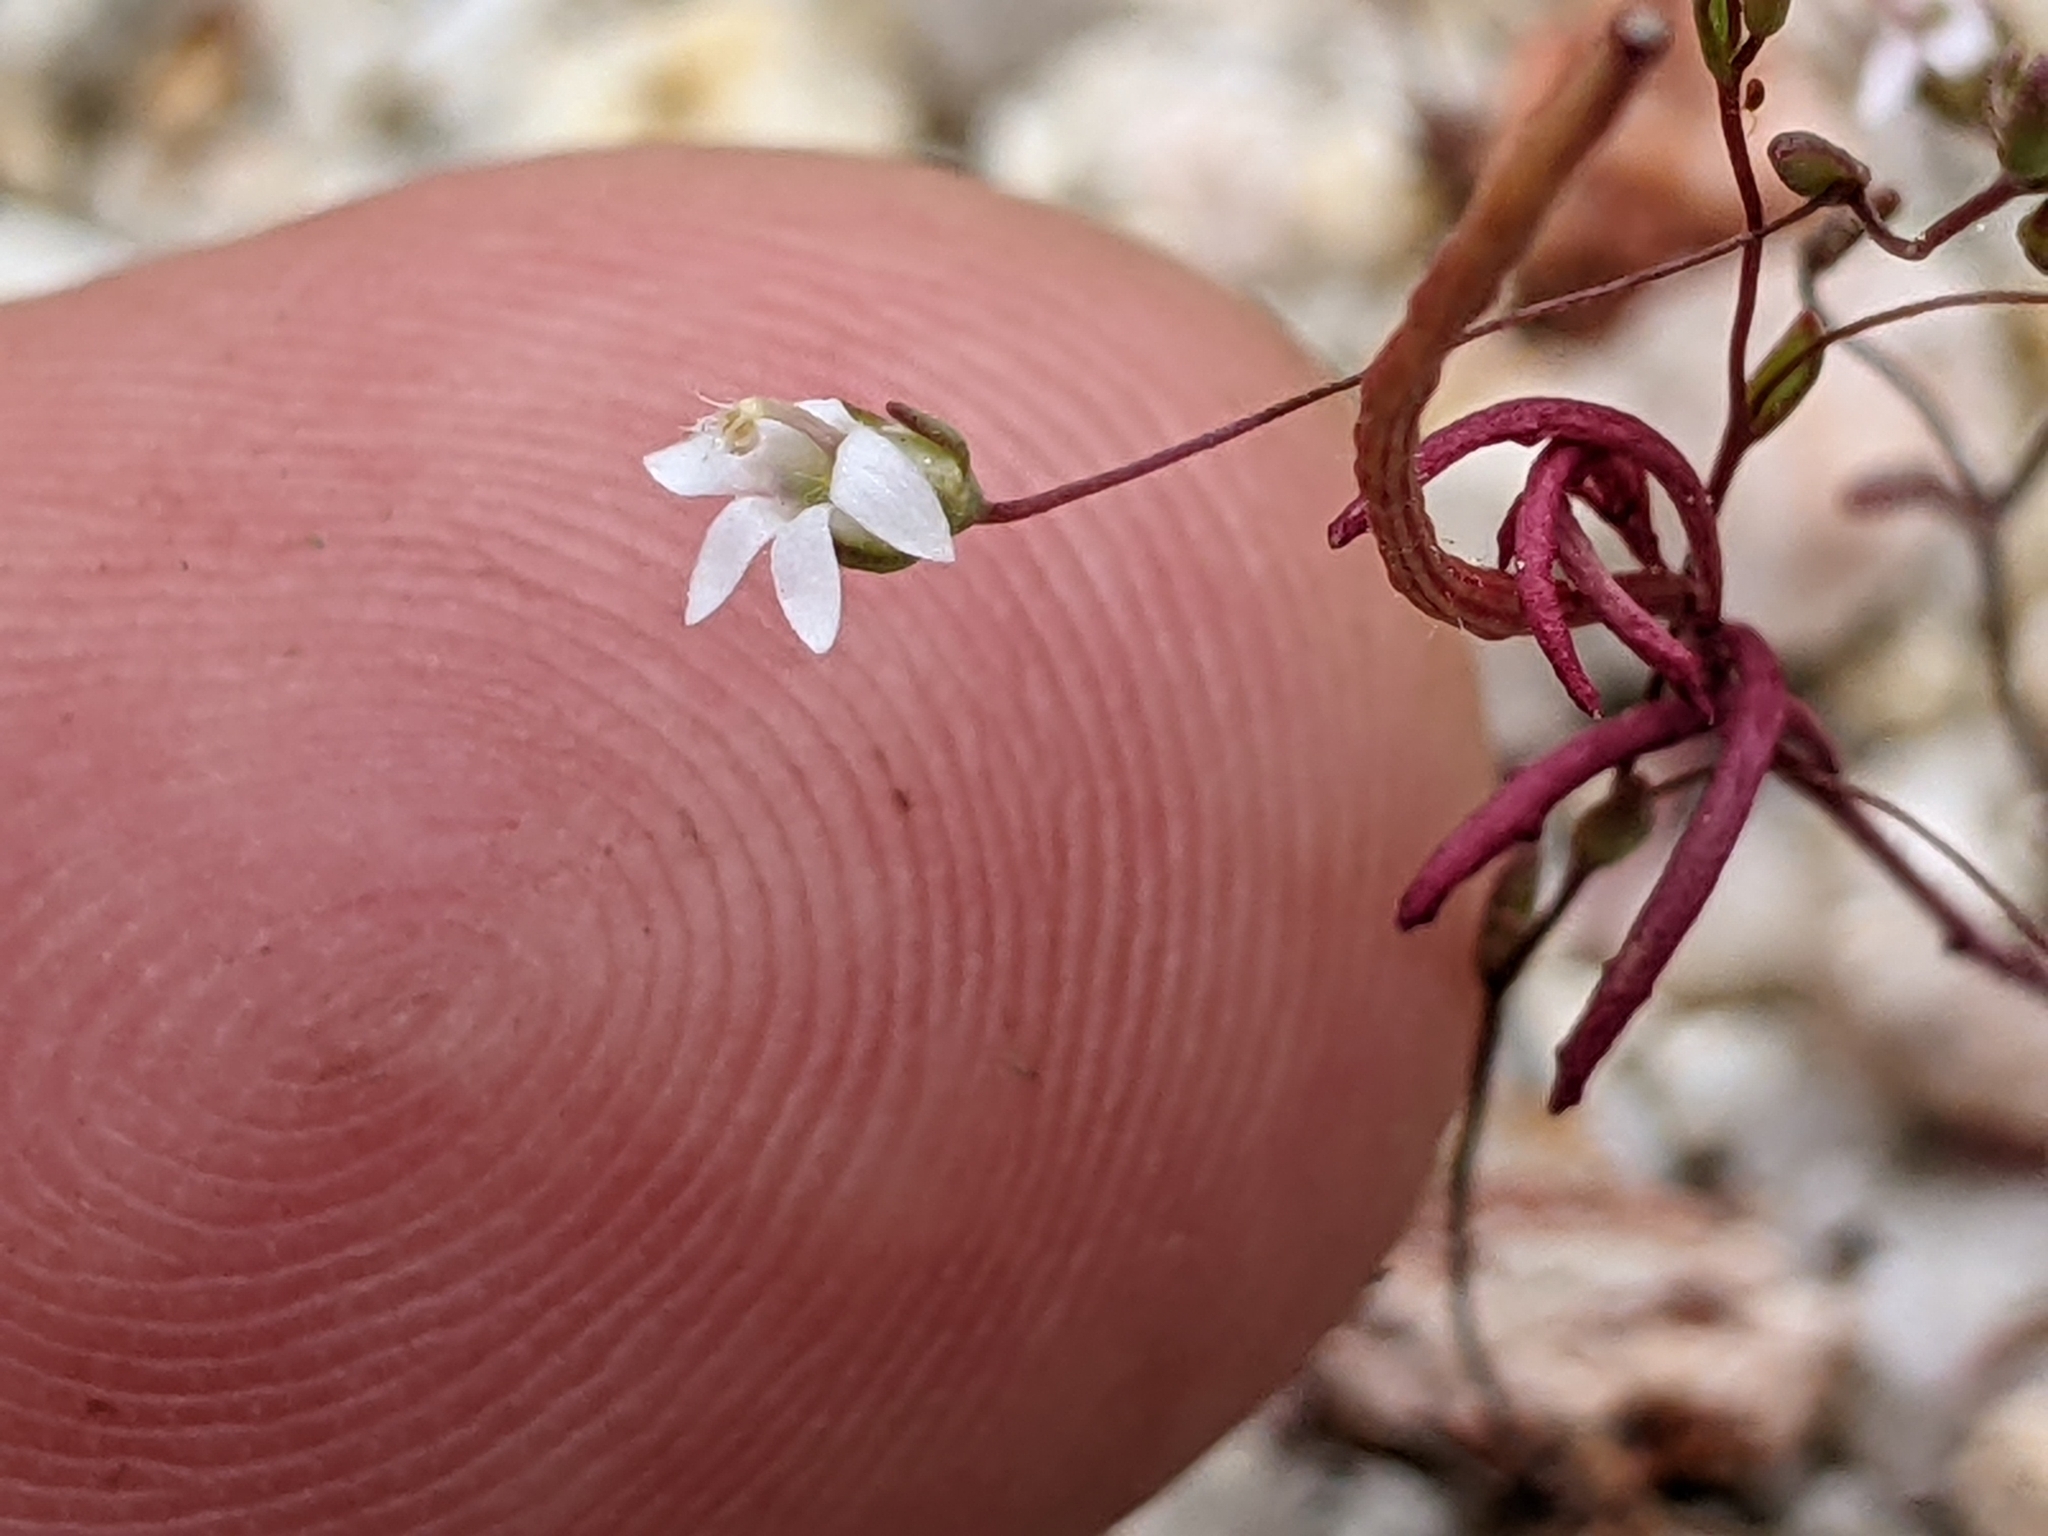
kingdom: Plantae
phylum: Tracheophyta
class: Magnoliopsida
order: Asterales
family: Campanulaceae
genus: Nemacladus
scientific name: Nemacladus secundiflorus
